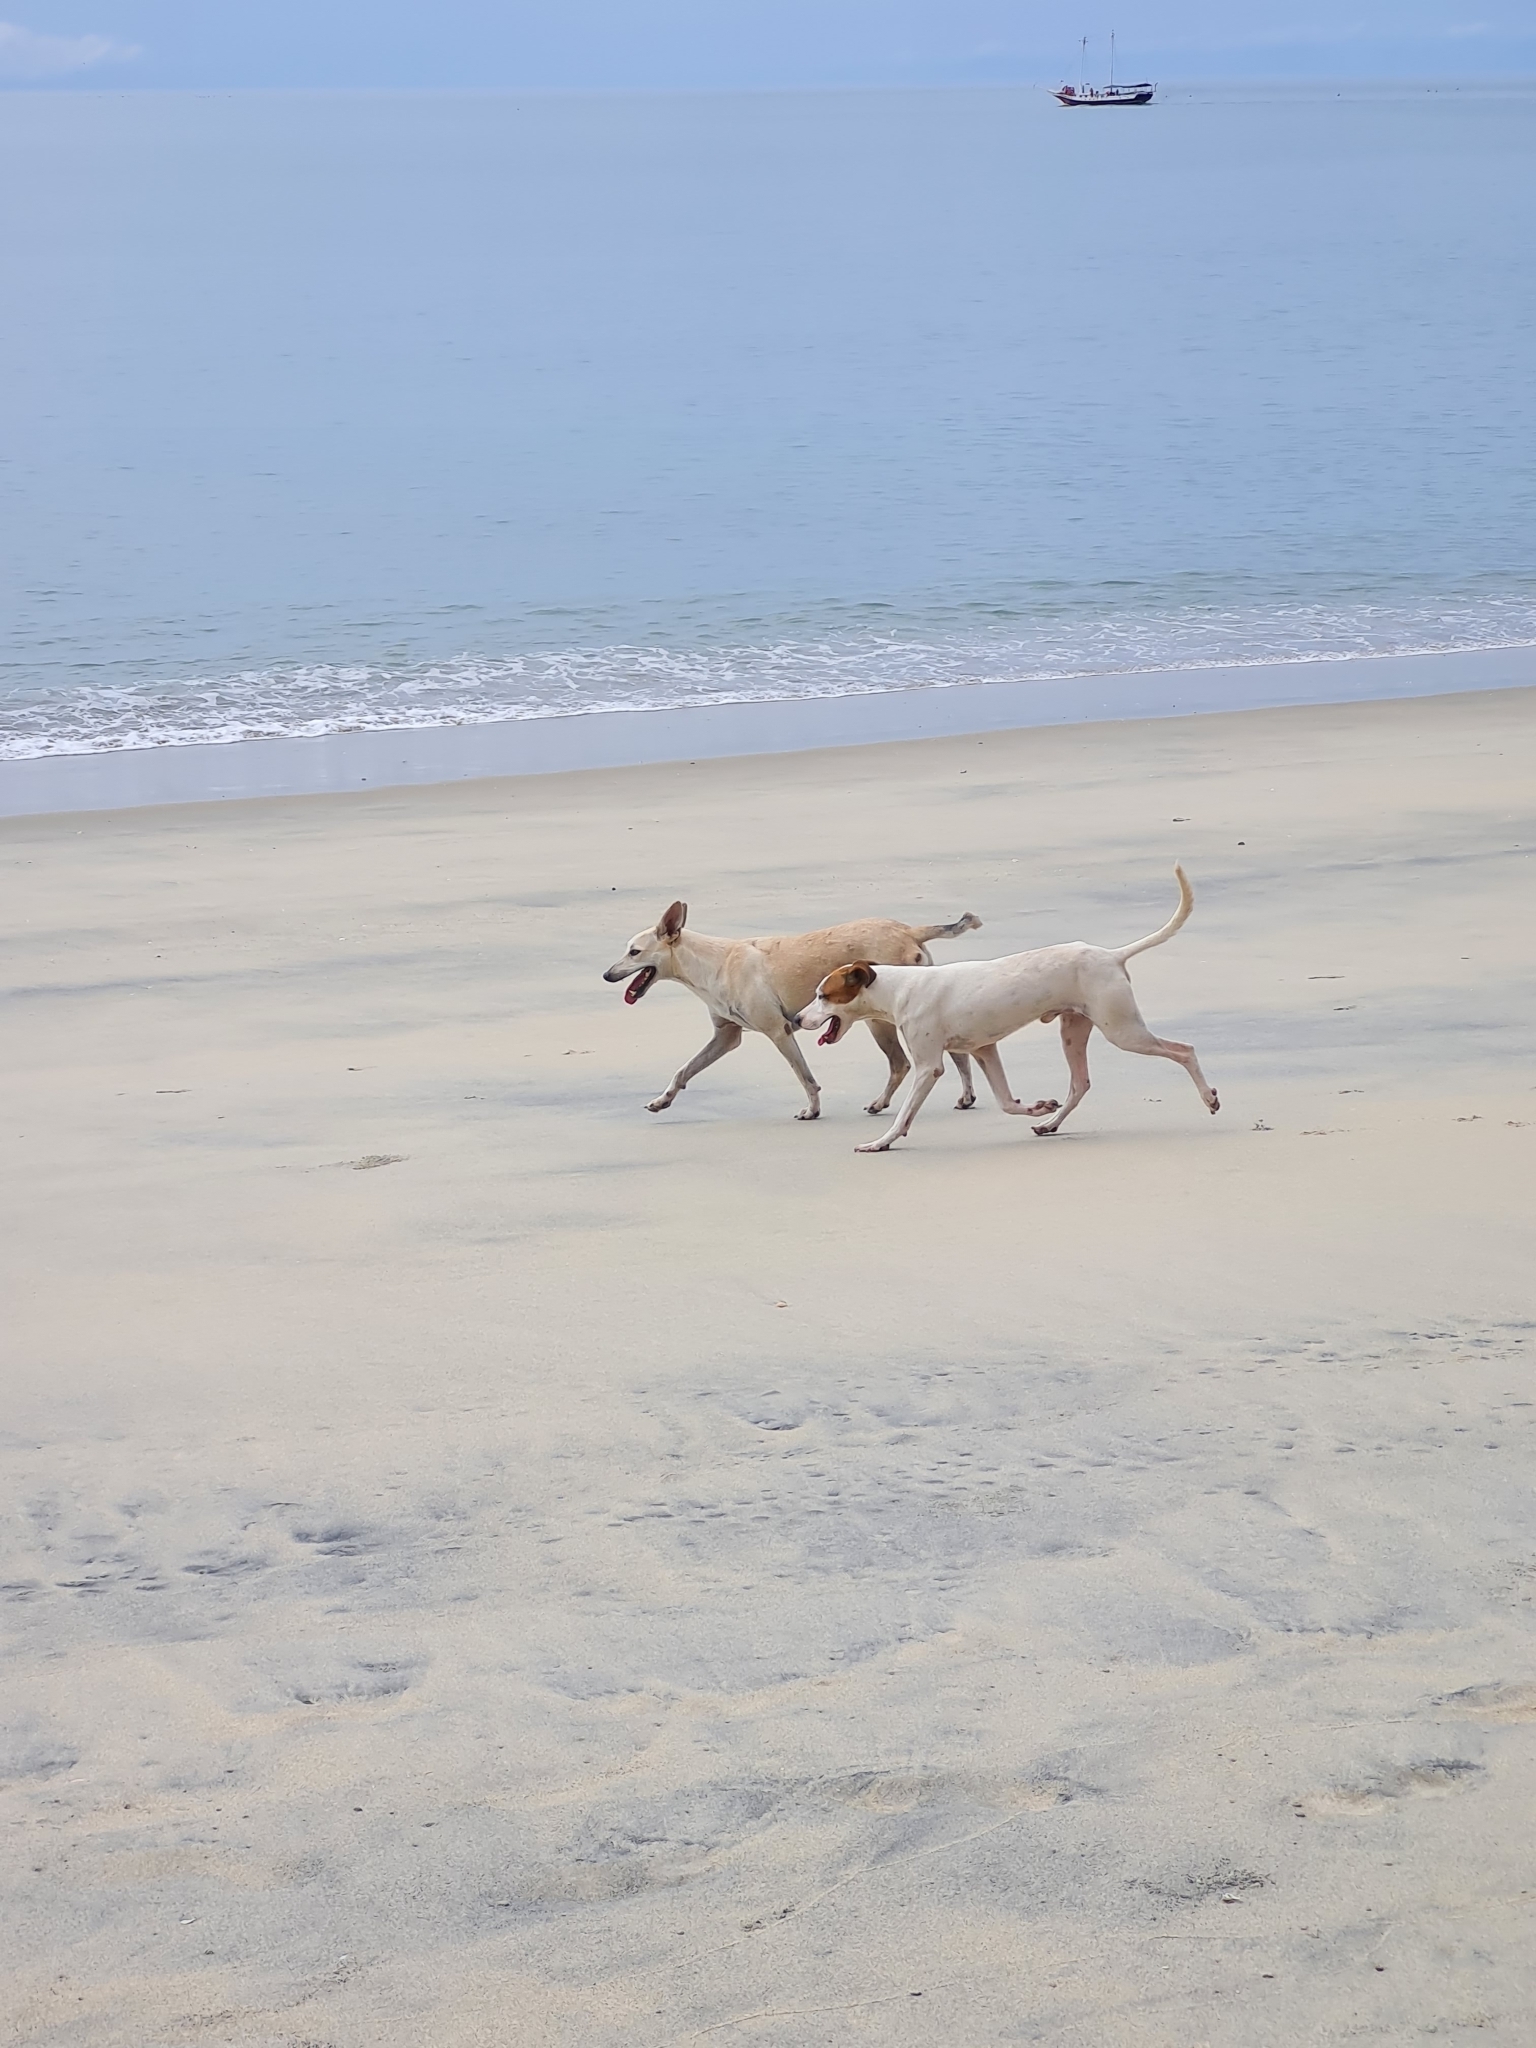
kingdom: Animalia
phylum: Chordata
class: Mammalia
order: Carnivora
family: Canidae
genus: Canis
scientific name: Canis lupus
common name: Gray wolf
